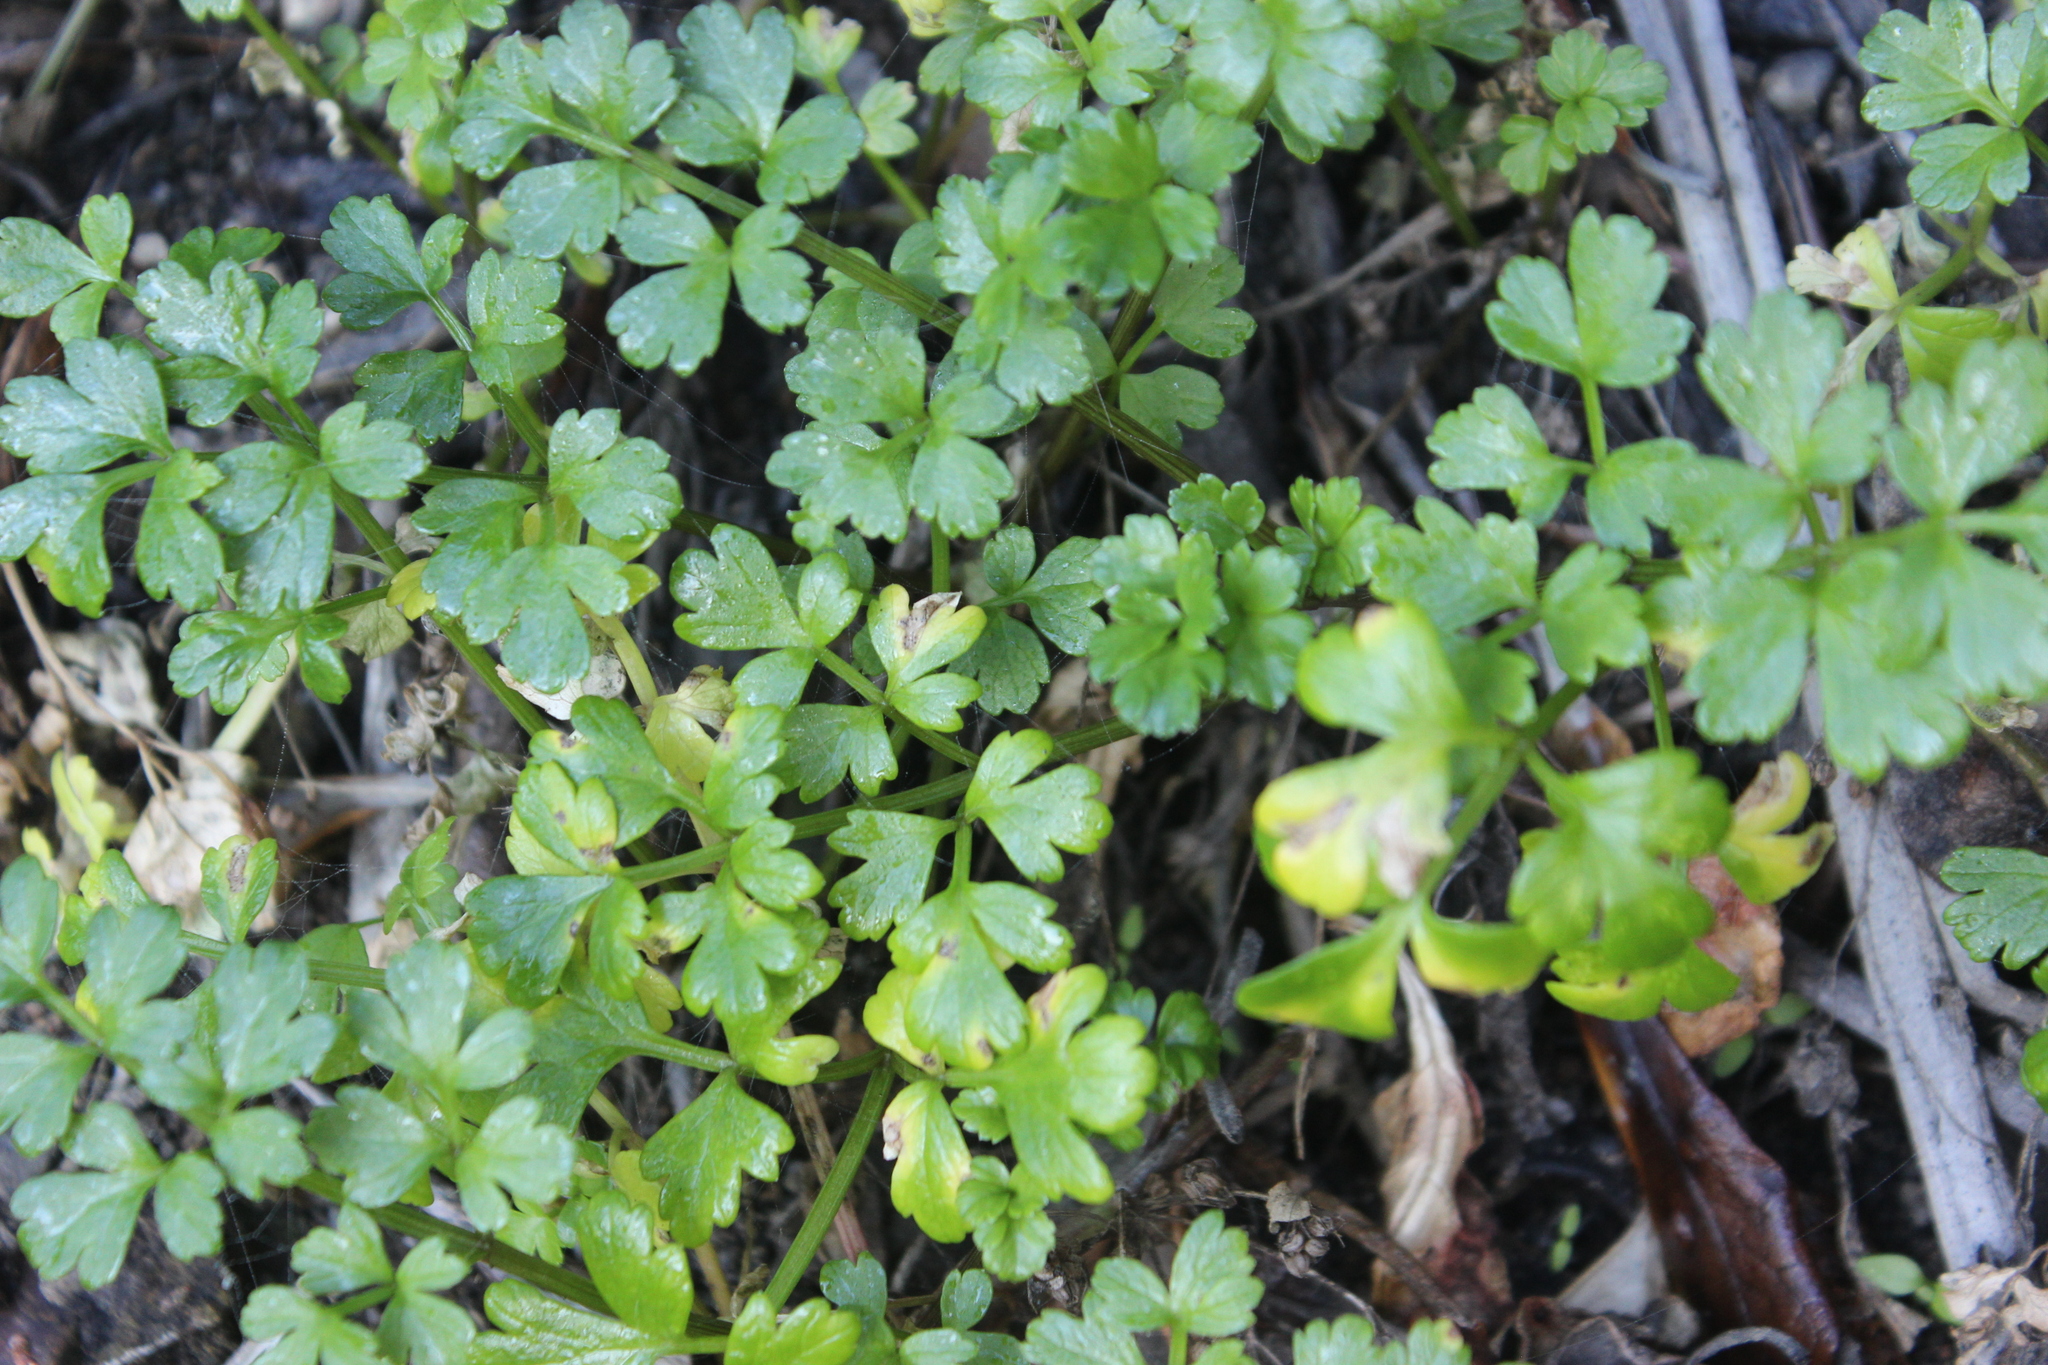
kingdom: Plantae
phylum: Tracheophyta
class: Magnoliopsida
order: Apiales
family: Apiaceae
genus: Apium
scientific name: Apium prostratum
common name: Prostrate marshwort
